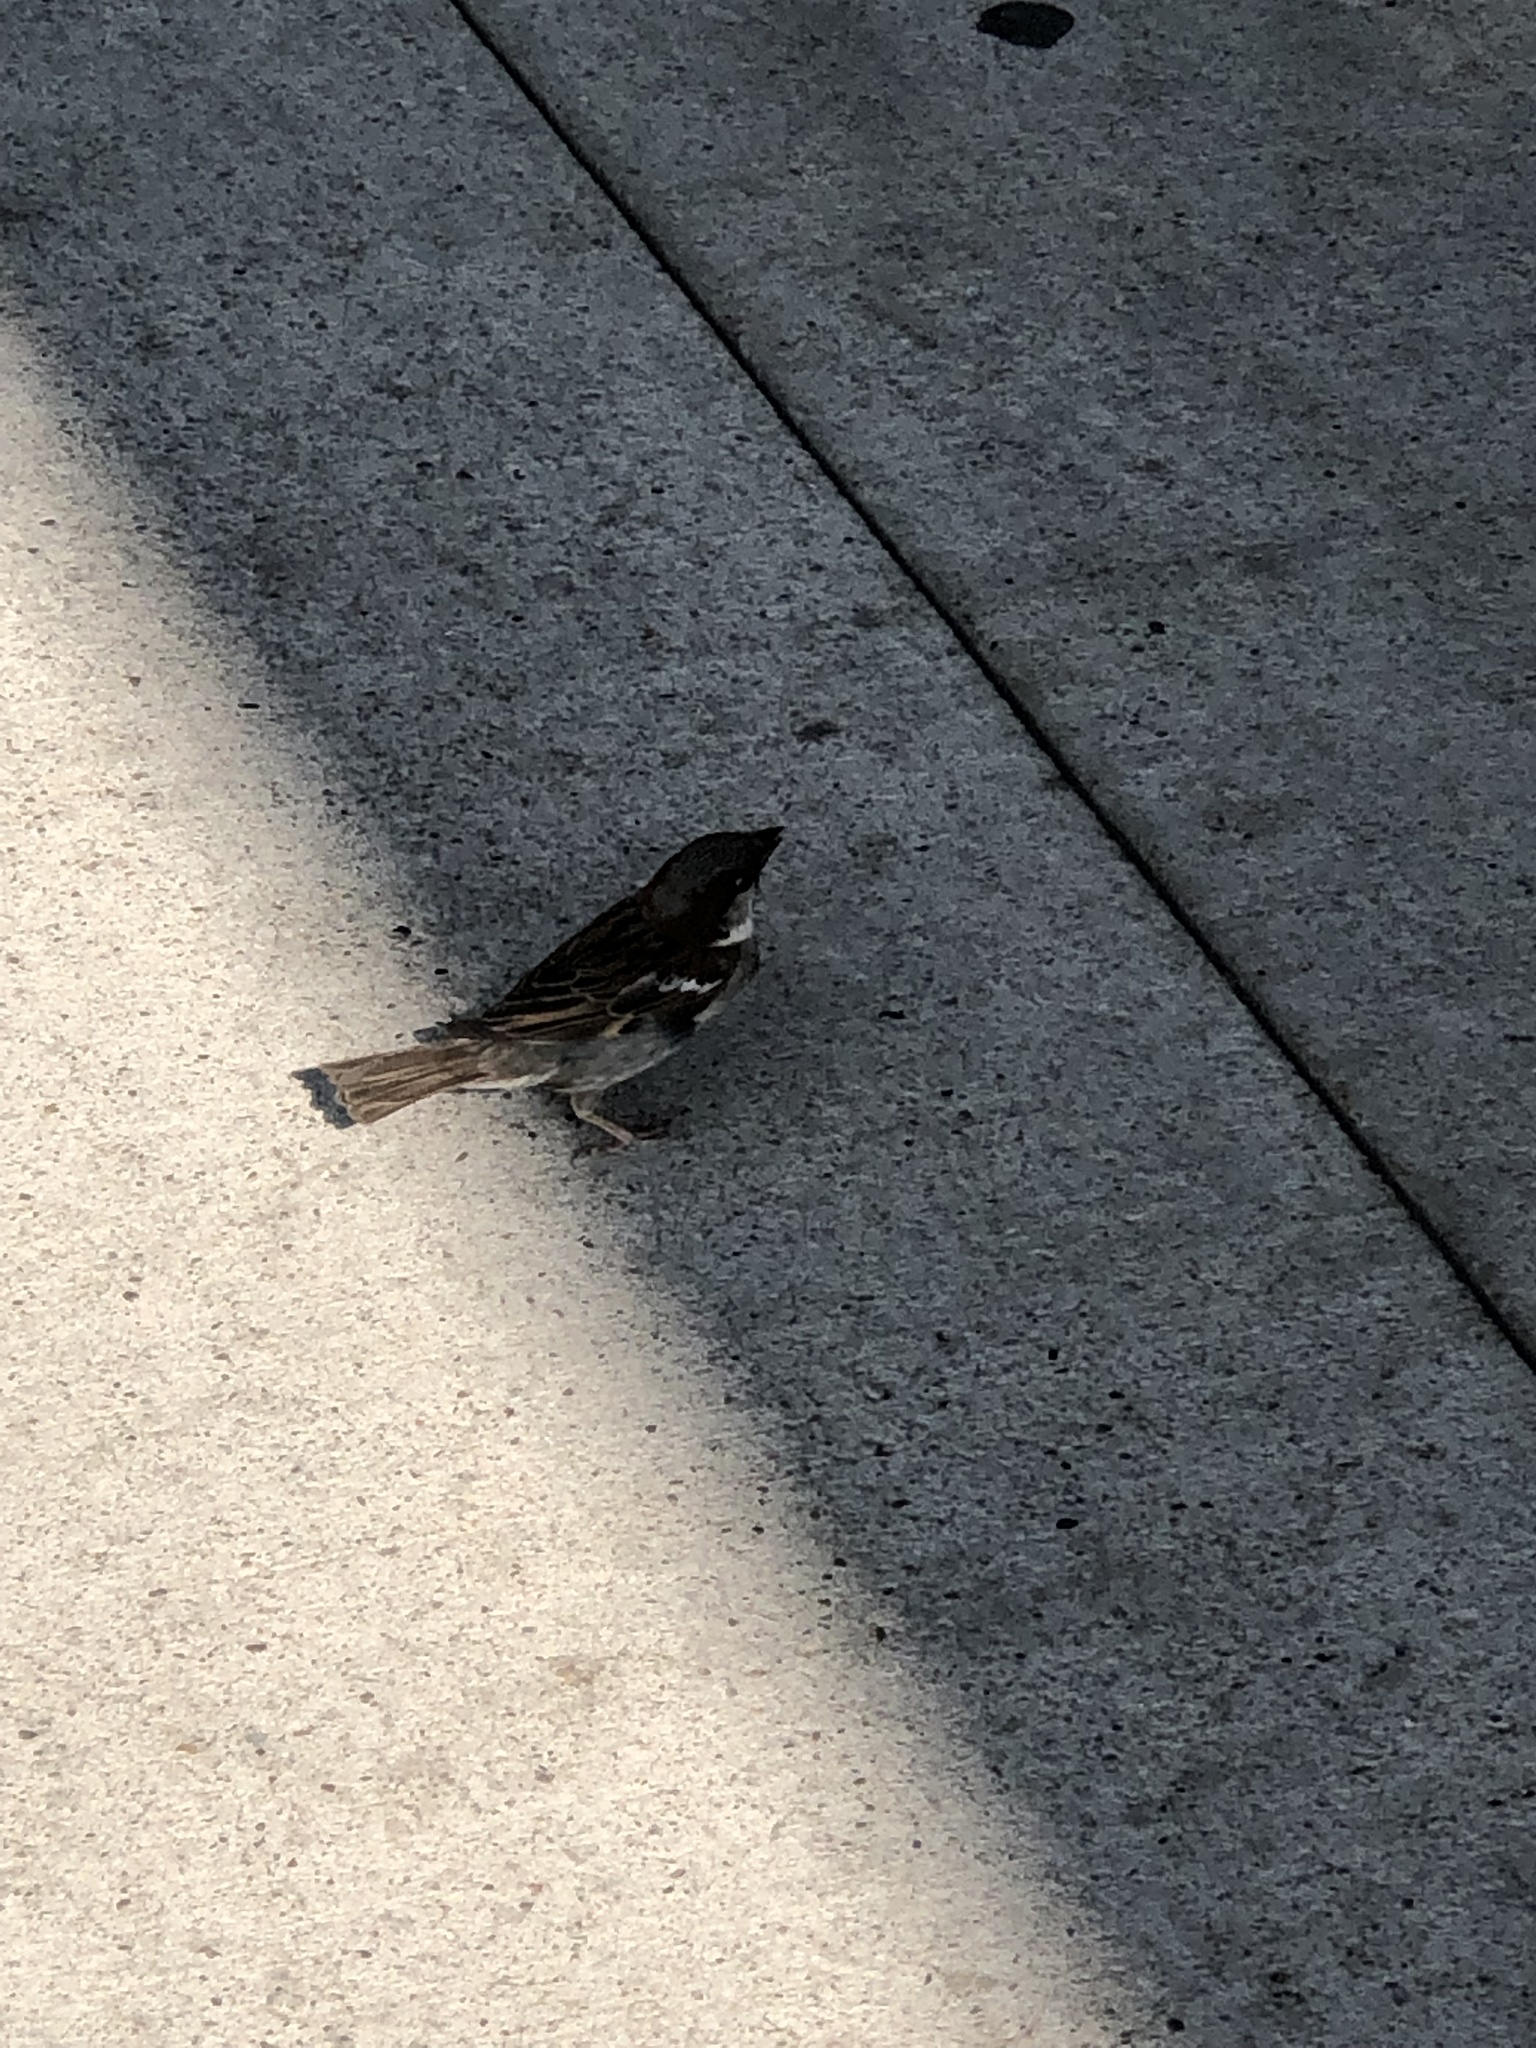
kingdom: Animalia
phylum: Chordata
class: Aves
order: Passeriformes
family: Passeridae
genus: Passer
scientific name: Passer domesticus
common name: House sparrow
